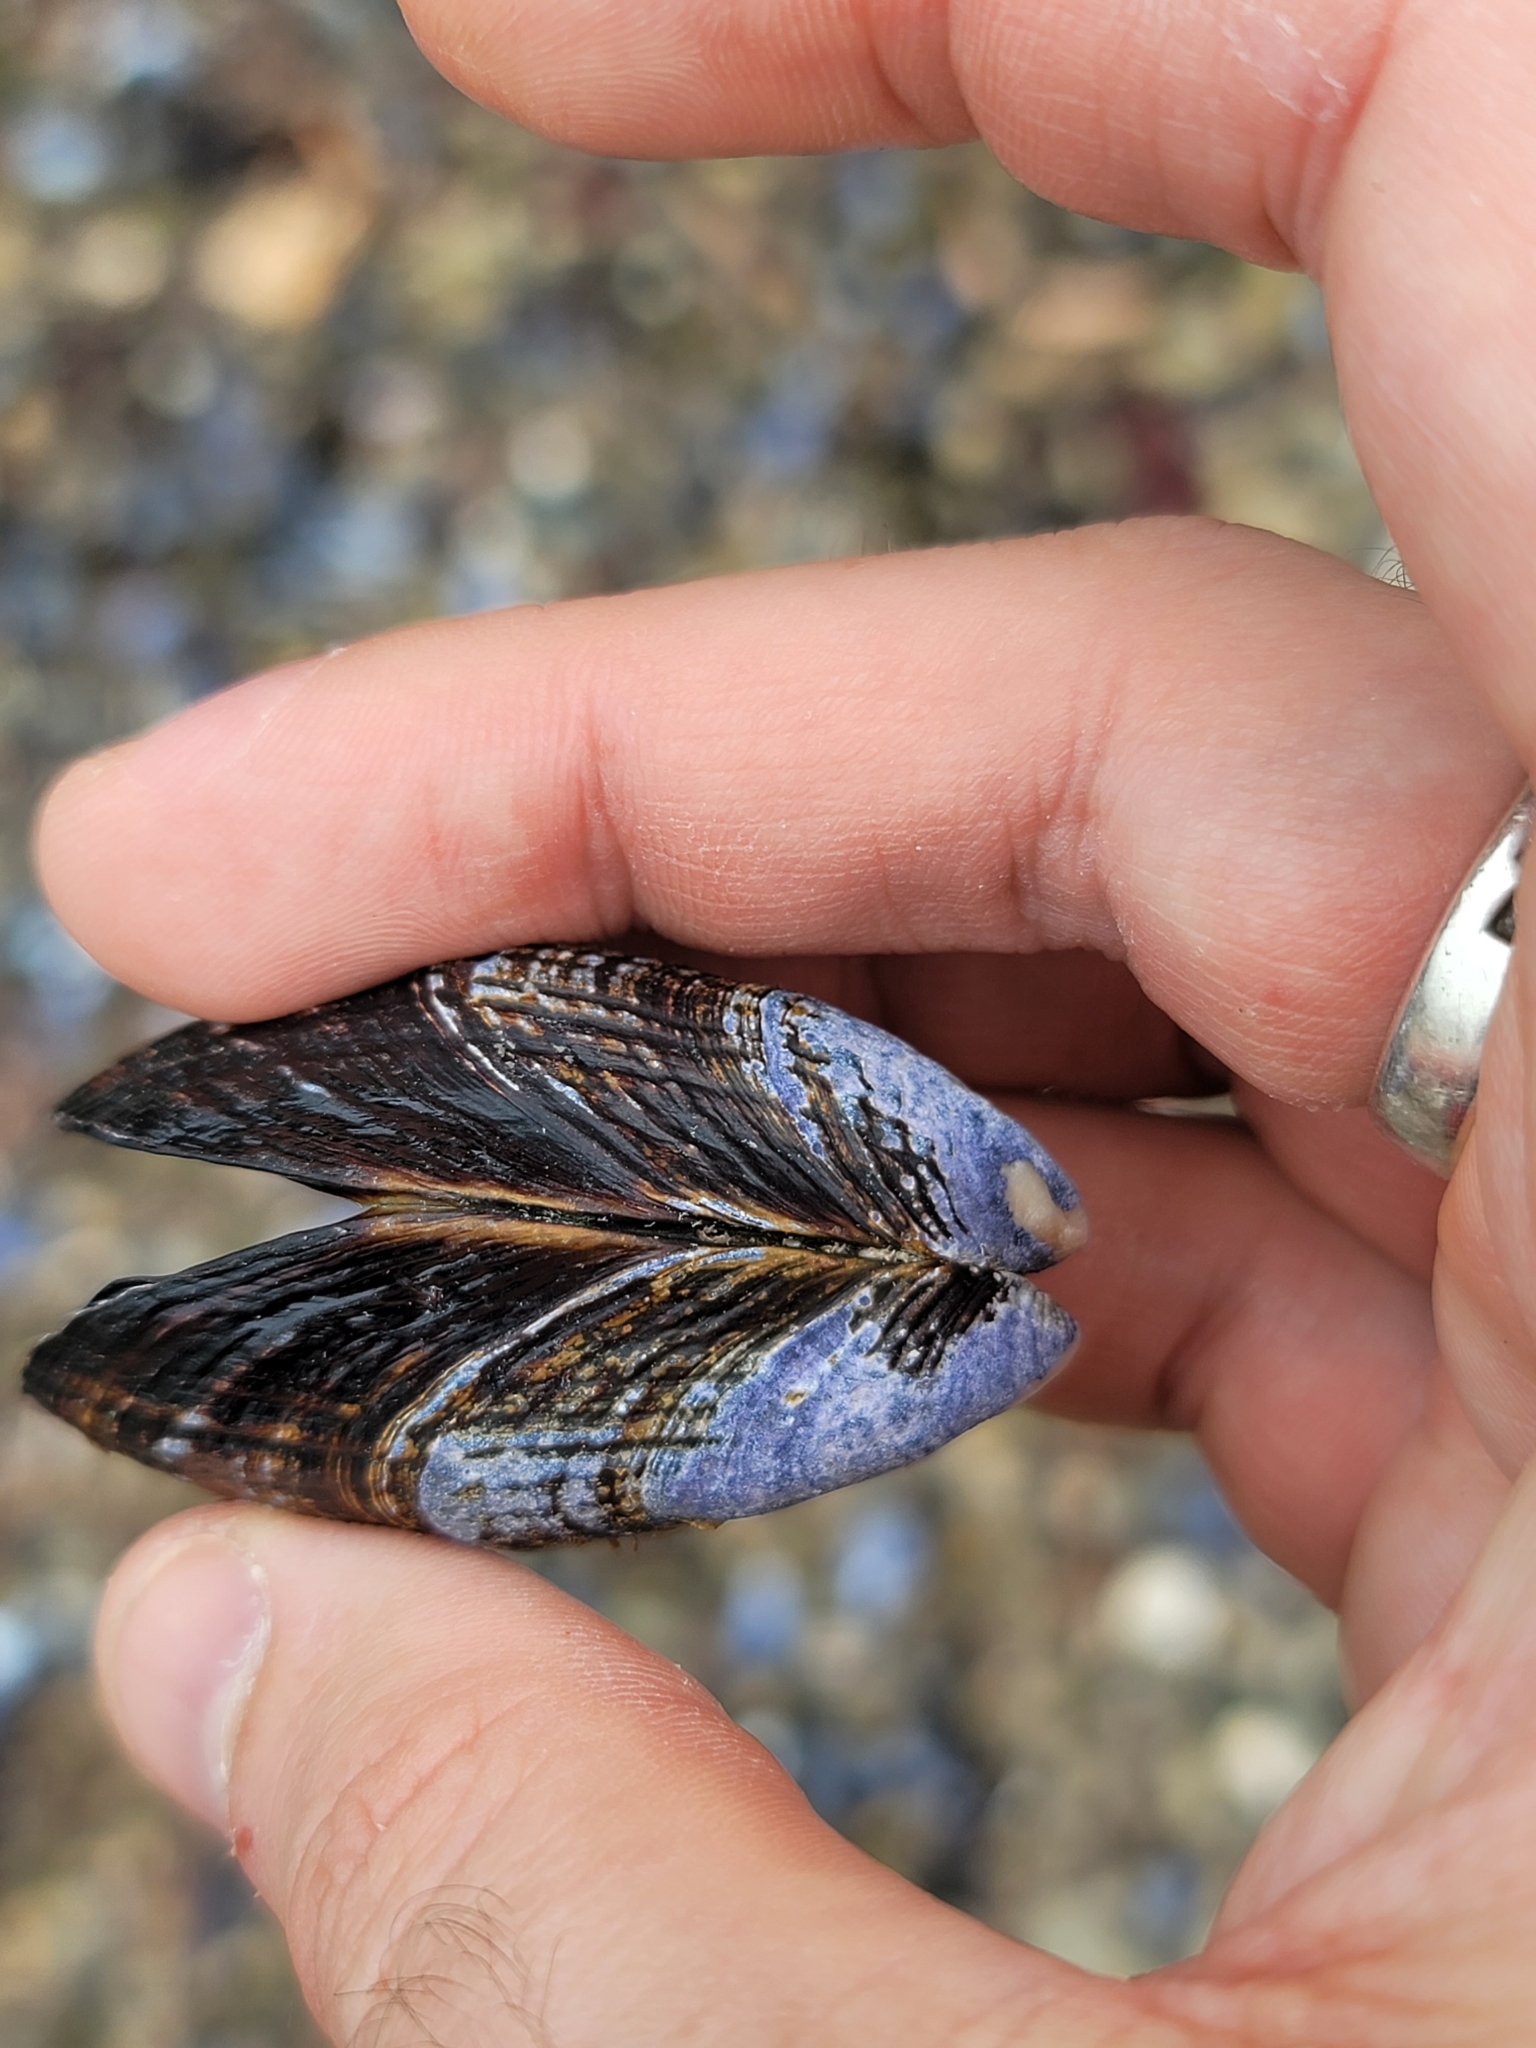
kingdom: Animalia
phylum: Mollusca
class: Bivalvia
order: Mytilida
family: Mytilidae
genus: Mytilus
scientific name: Mytilus californianus
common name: California mussel
